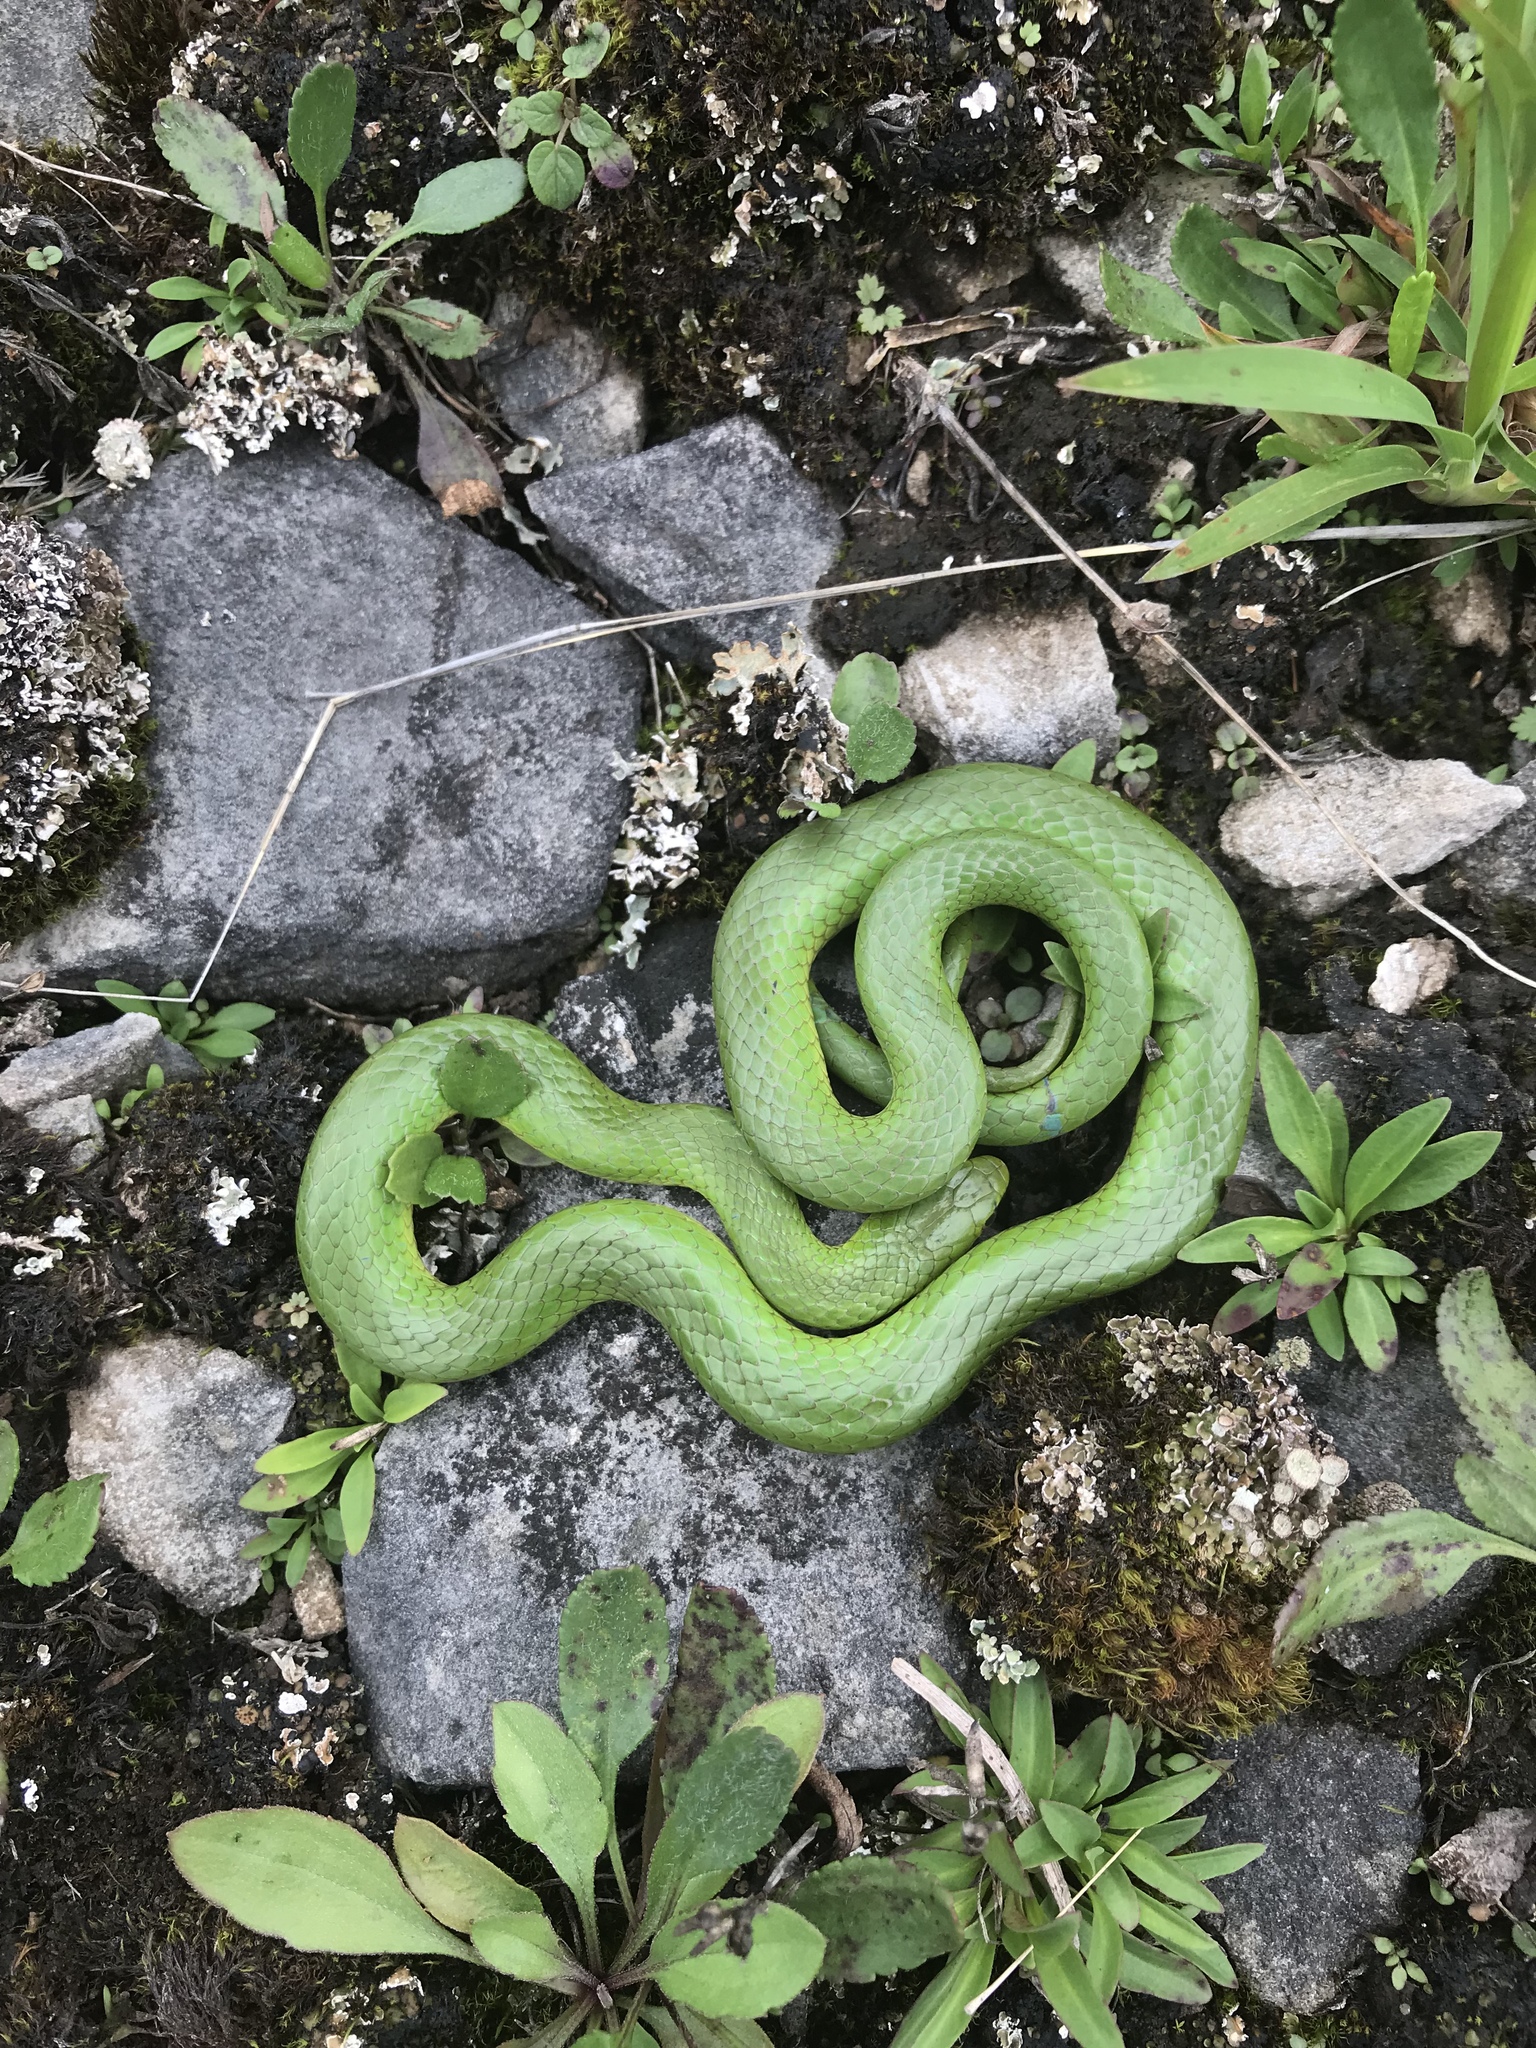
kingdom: Animalia
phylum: Chordata
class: Squamata
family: Colubridae
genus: Opheodrys
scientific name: Opheodrys vernalis
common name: Smooth green snake
